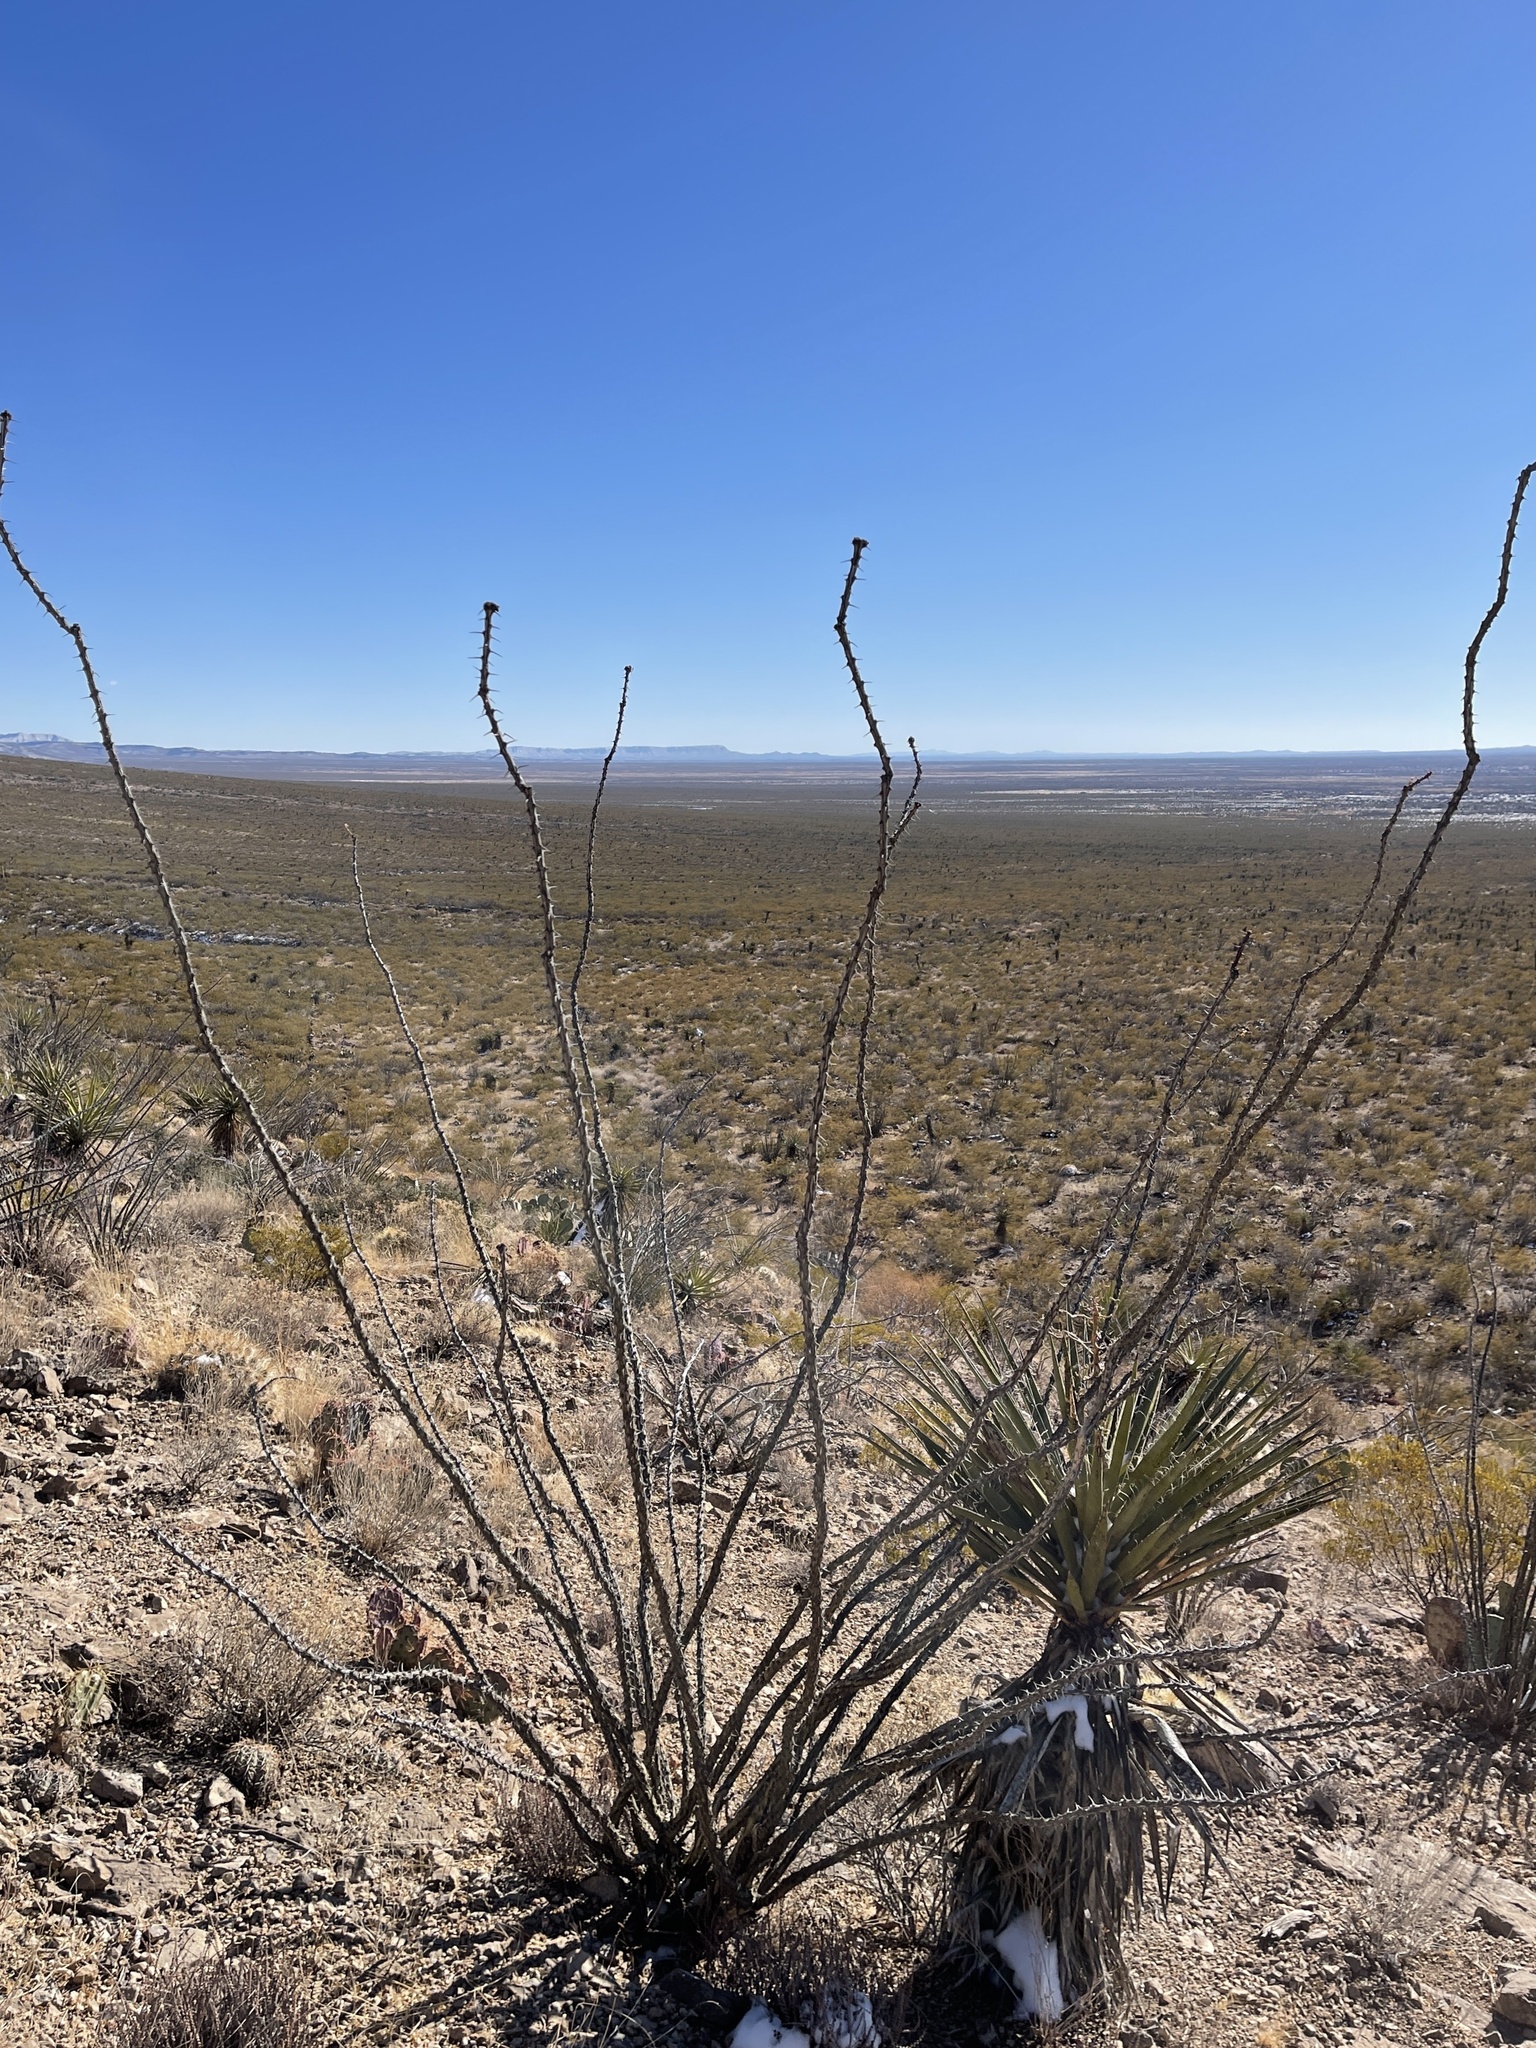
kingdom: Plantae
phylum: Tracheophyta
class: Magnoliopsida
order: Ericales
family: Fouquieriaceae
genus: Fouquieria
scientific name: Fouquieria splendens
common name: Vine-cactus
